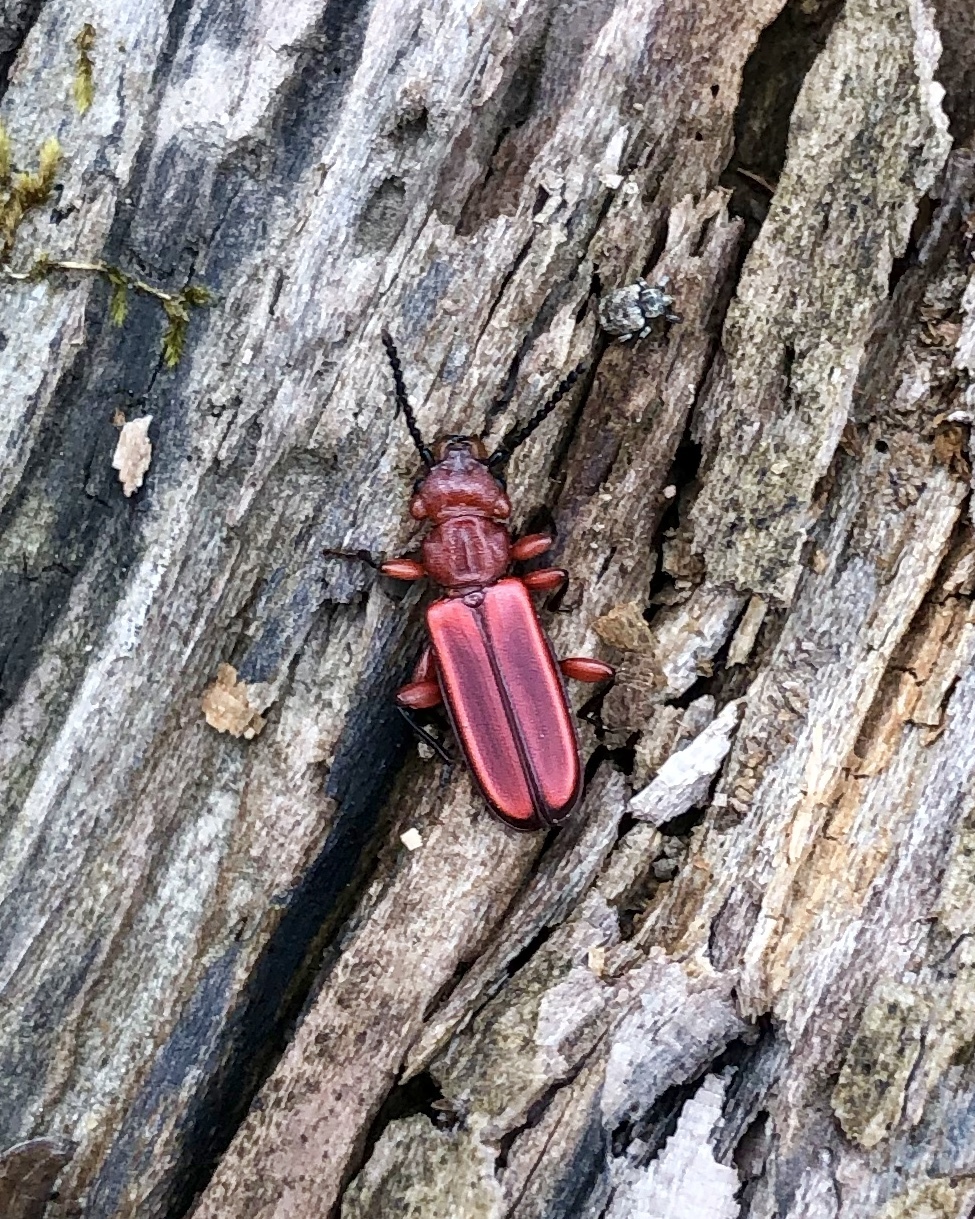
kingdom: Animalia
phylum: Arthropoda
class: Insecta
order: Coleoptera
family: Cucujidae
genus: Cucujus
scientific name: Cucujus clavipes
